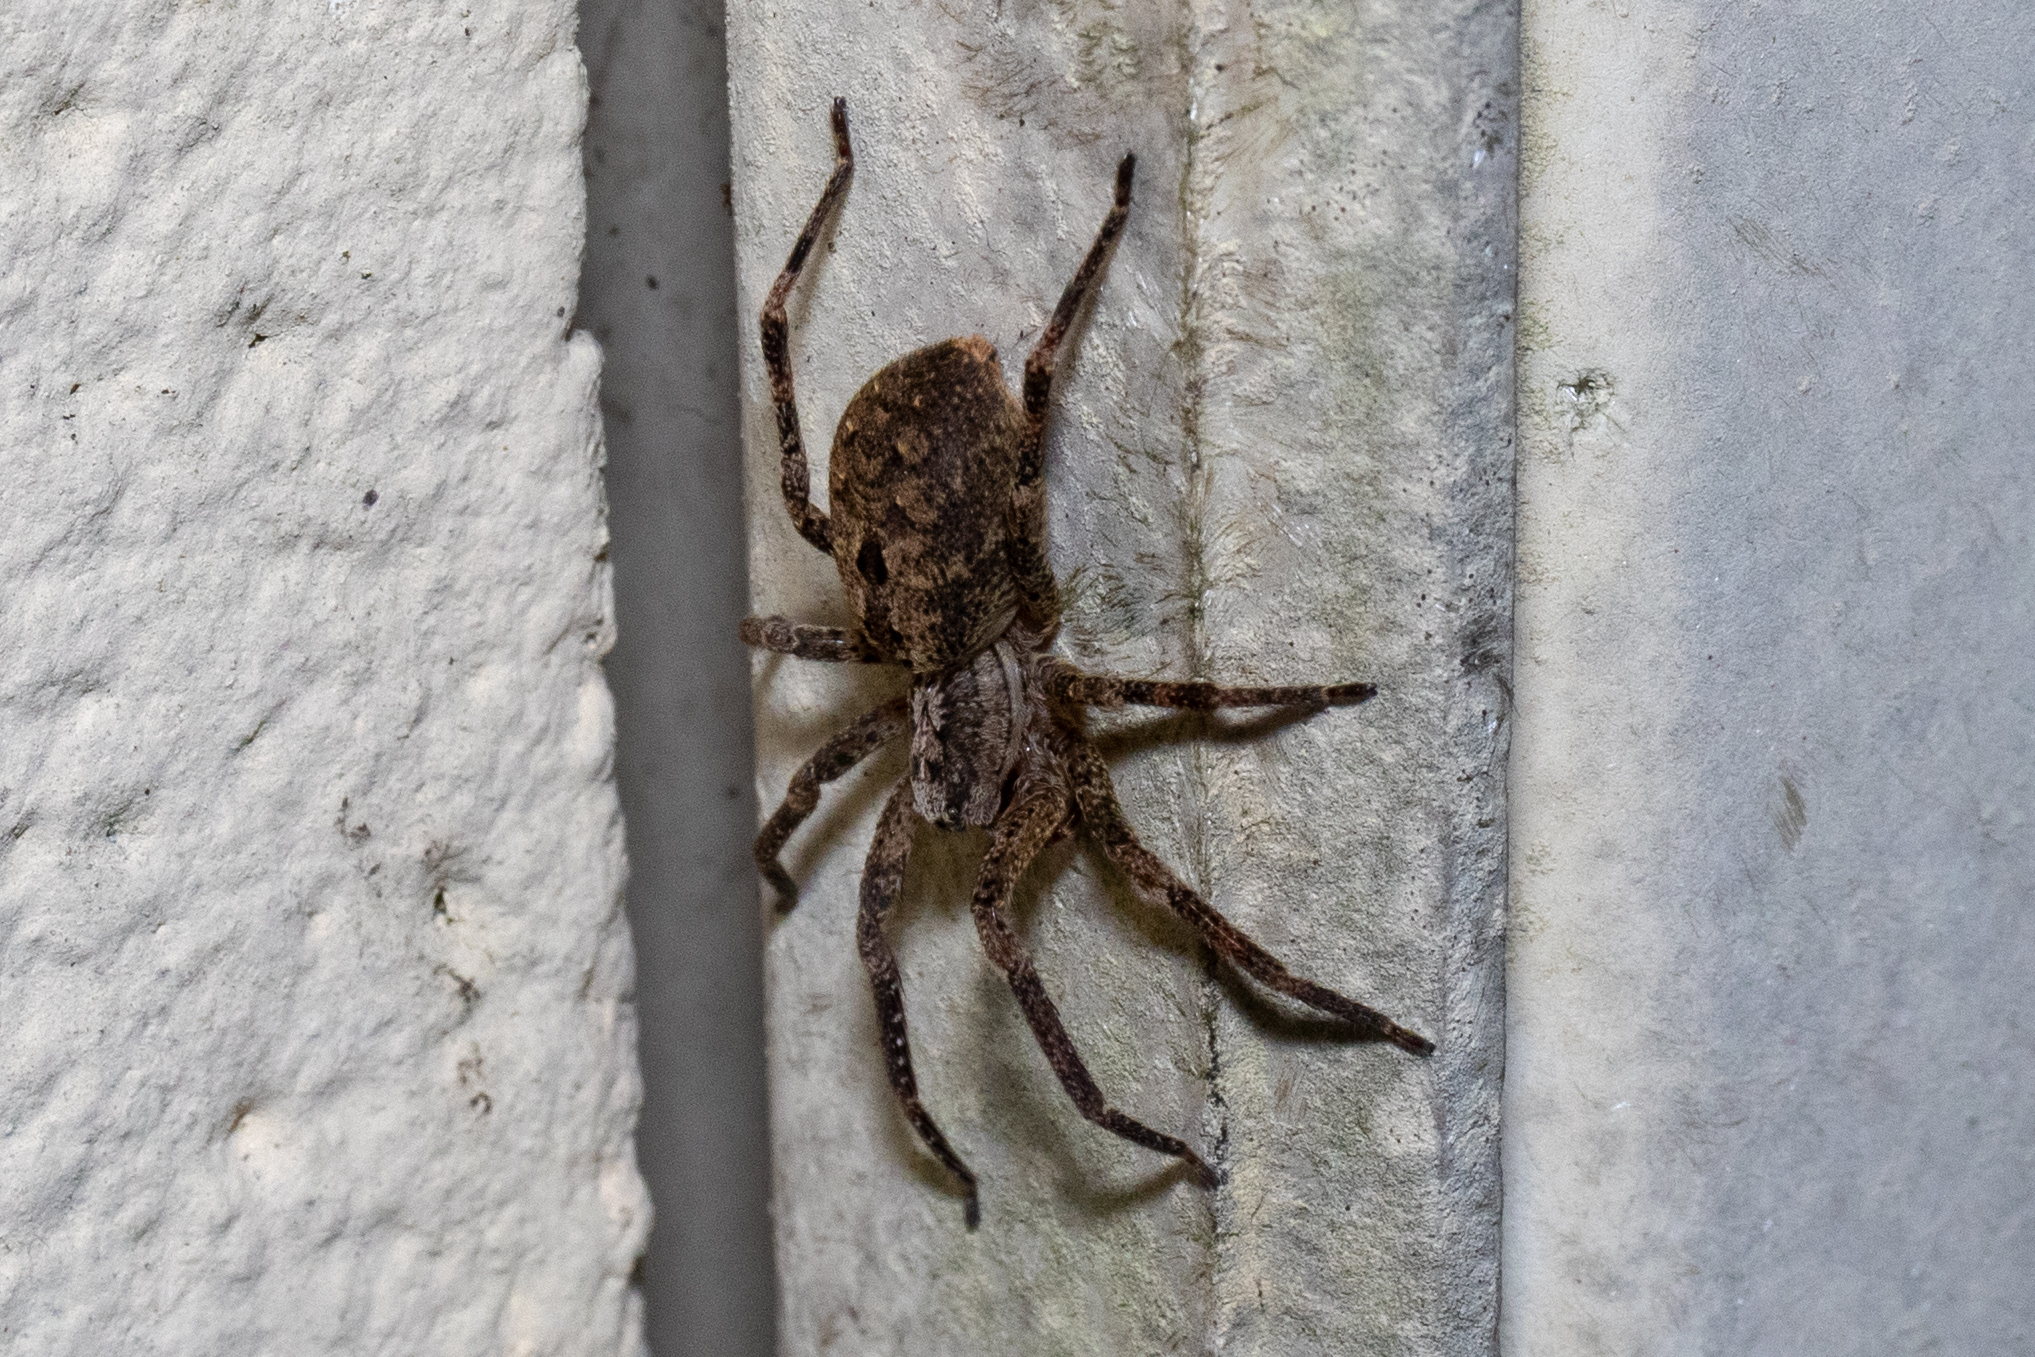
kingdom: Animalia
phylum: Arthropoda
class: Arachnida
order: Araneae
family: Zoropsidae
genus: Zoropsis
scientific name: Zoropsis spinimana
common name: Zoropsid spider
